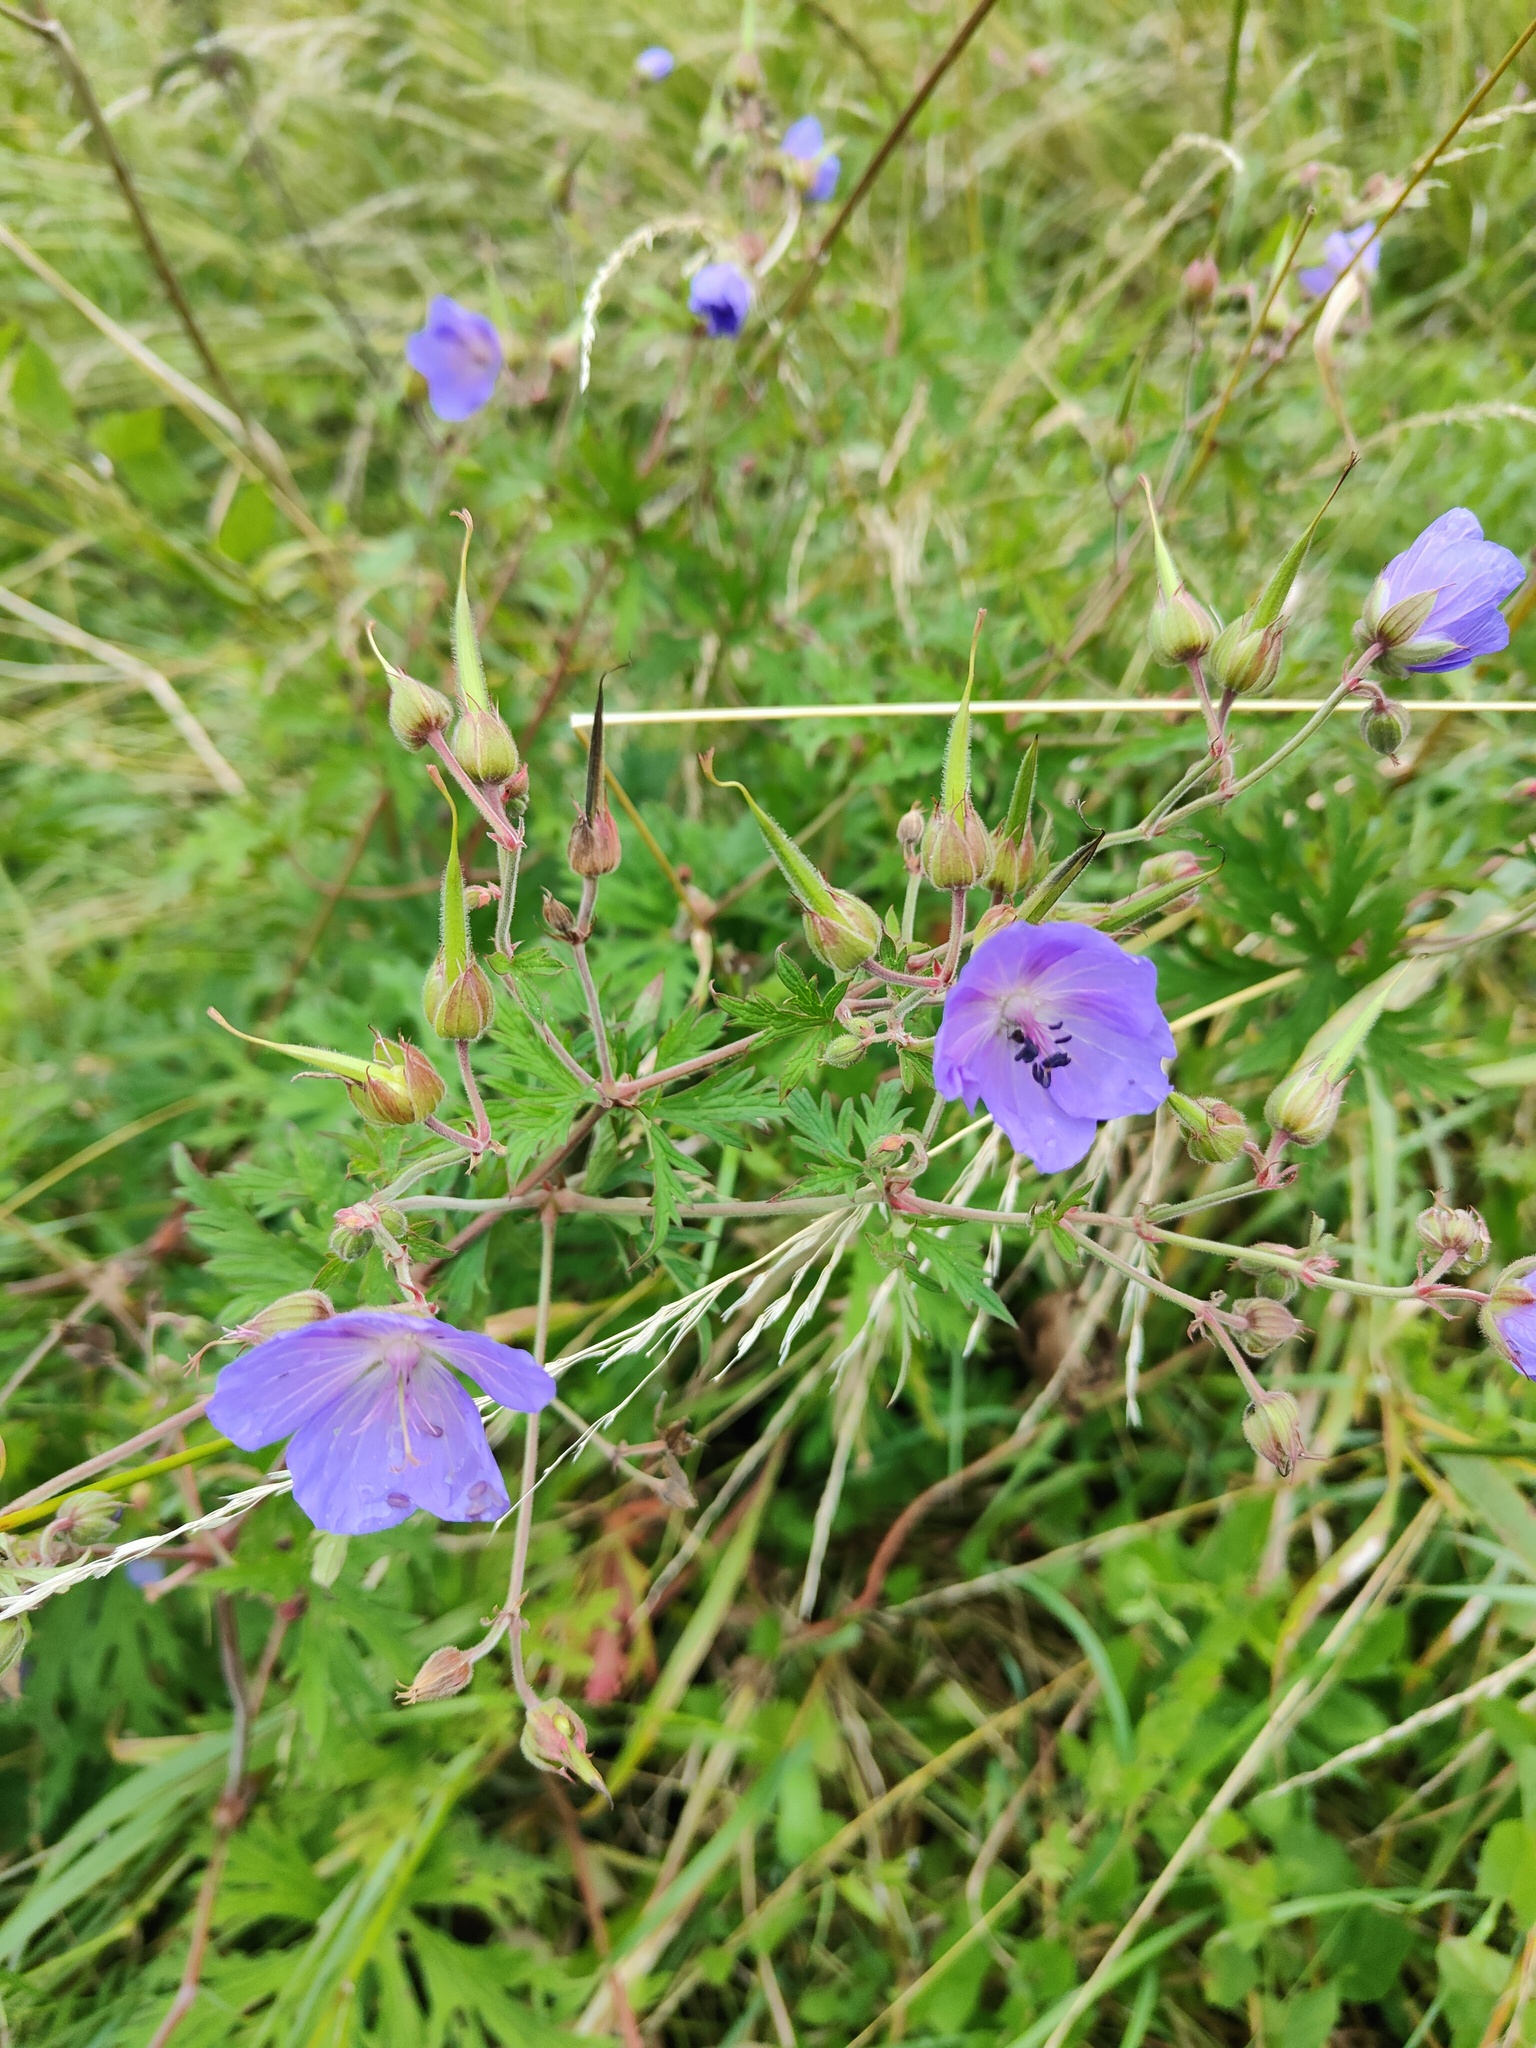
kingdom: Plantae
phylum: Tracheophyta
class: Magnoliopsida
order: Geraniales
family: Geraniaceae
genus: Geranium
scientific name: Geranium pratense
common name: Meadow crane's-bill
